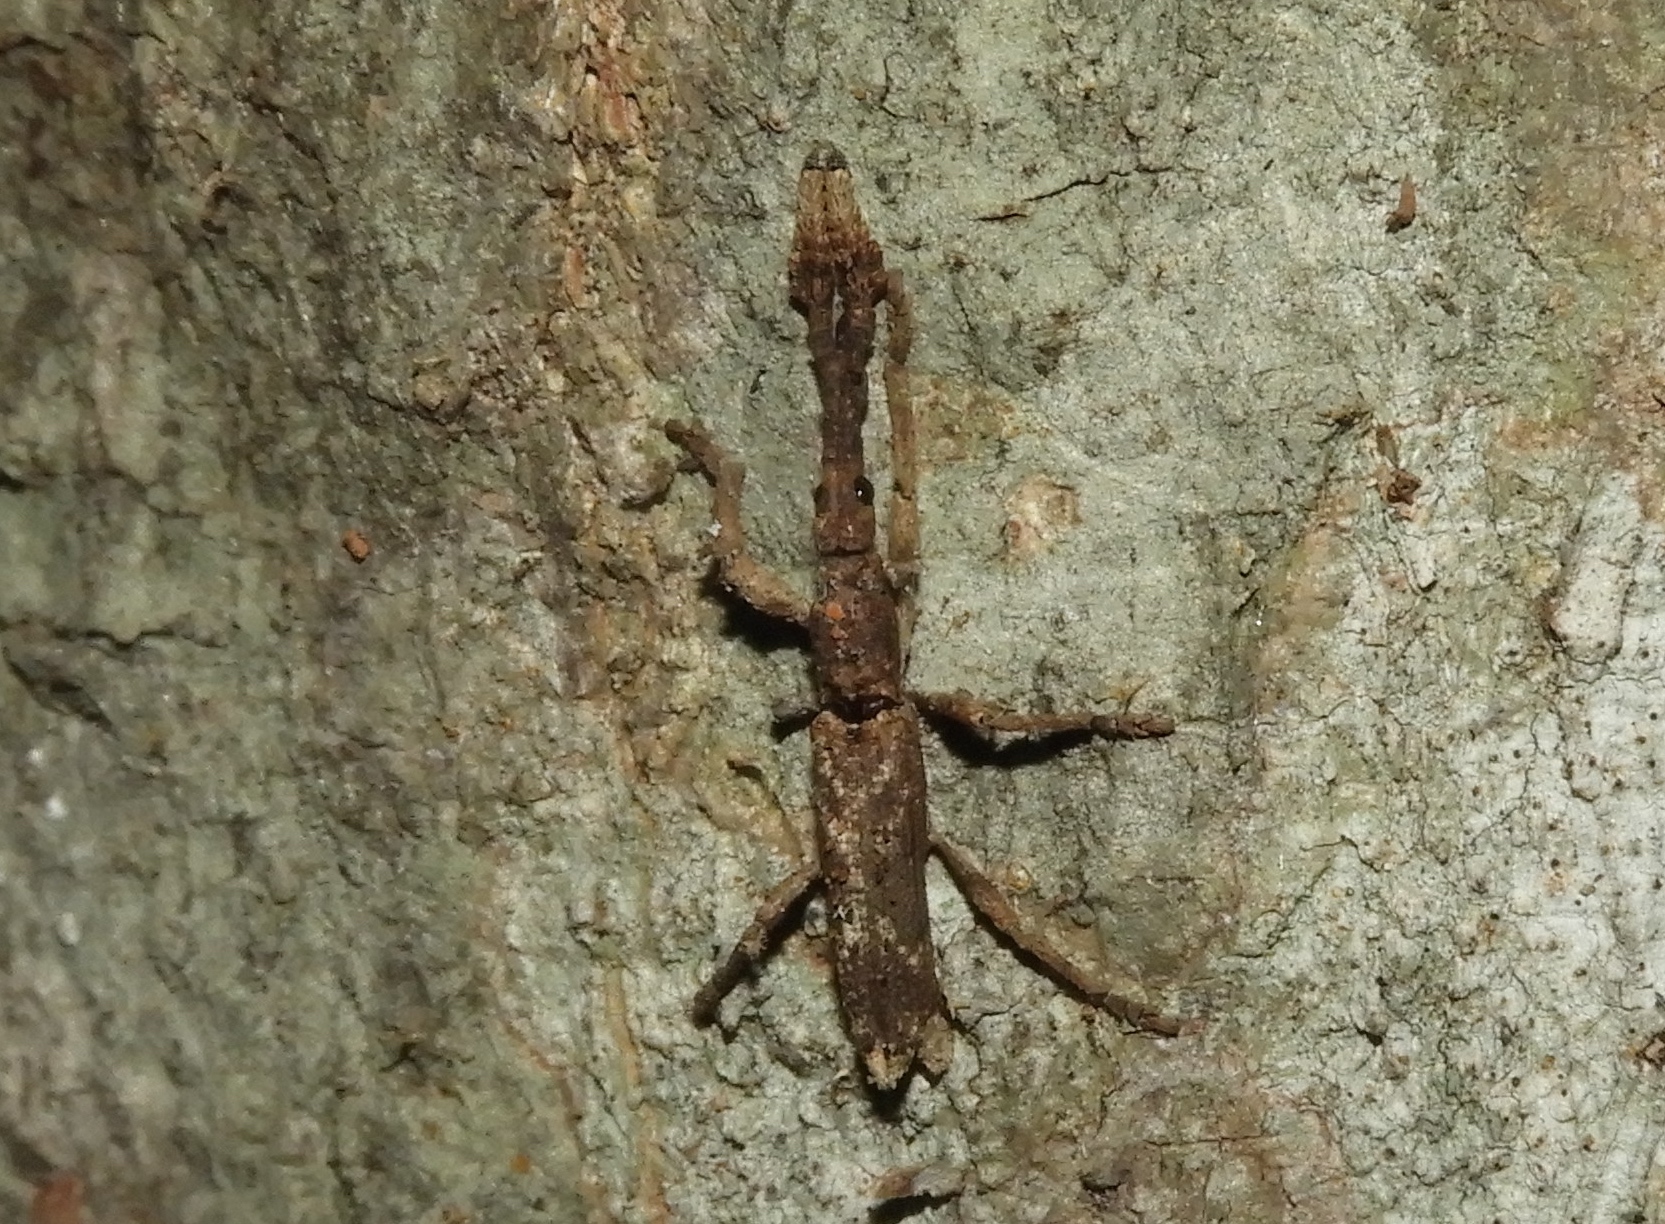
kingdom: Animalia
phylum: Arthropoda
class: Insecta
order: Coleoptera
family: Brentidae
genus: Ulocerus
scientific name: Ulocerus mexicanus
